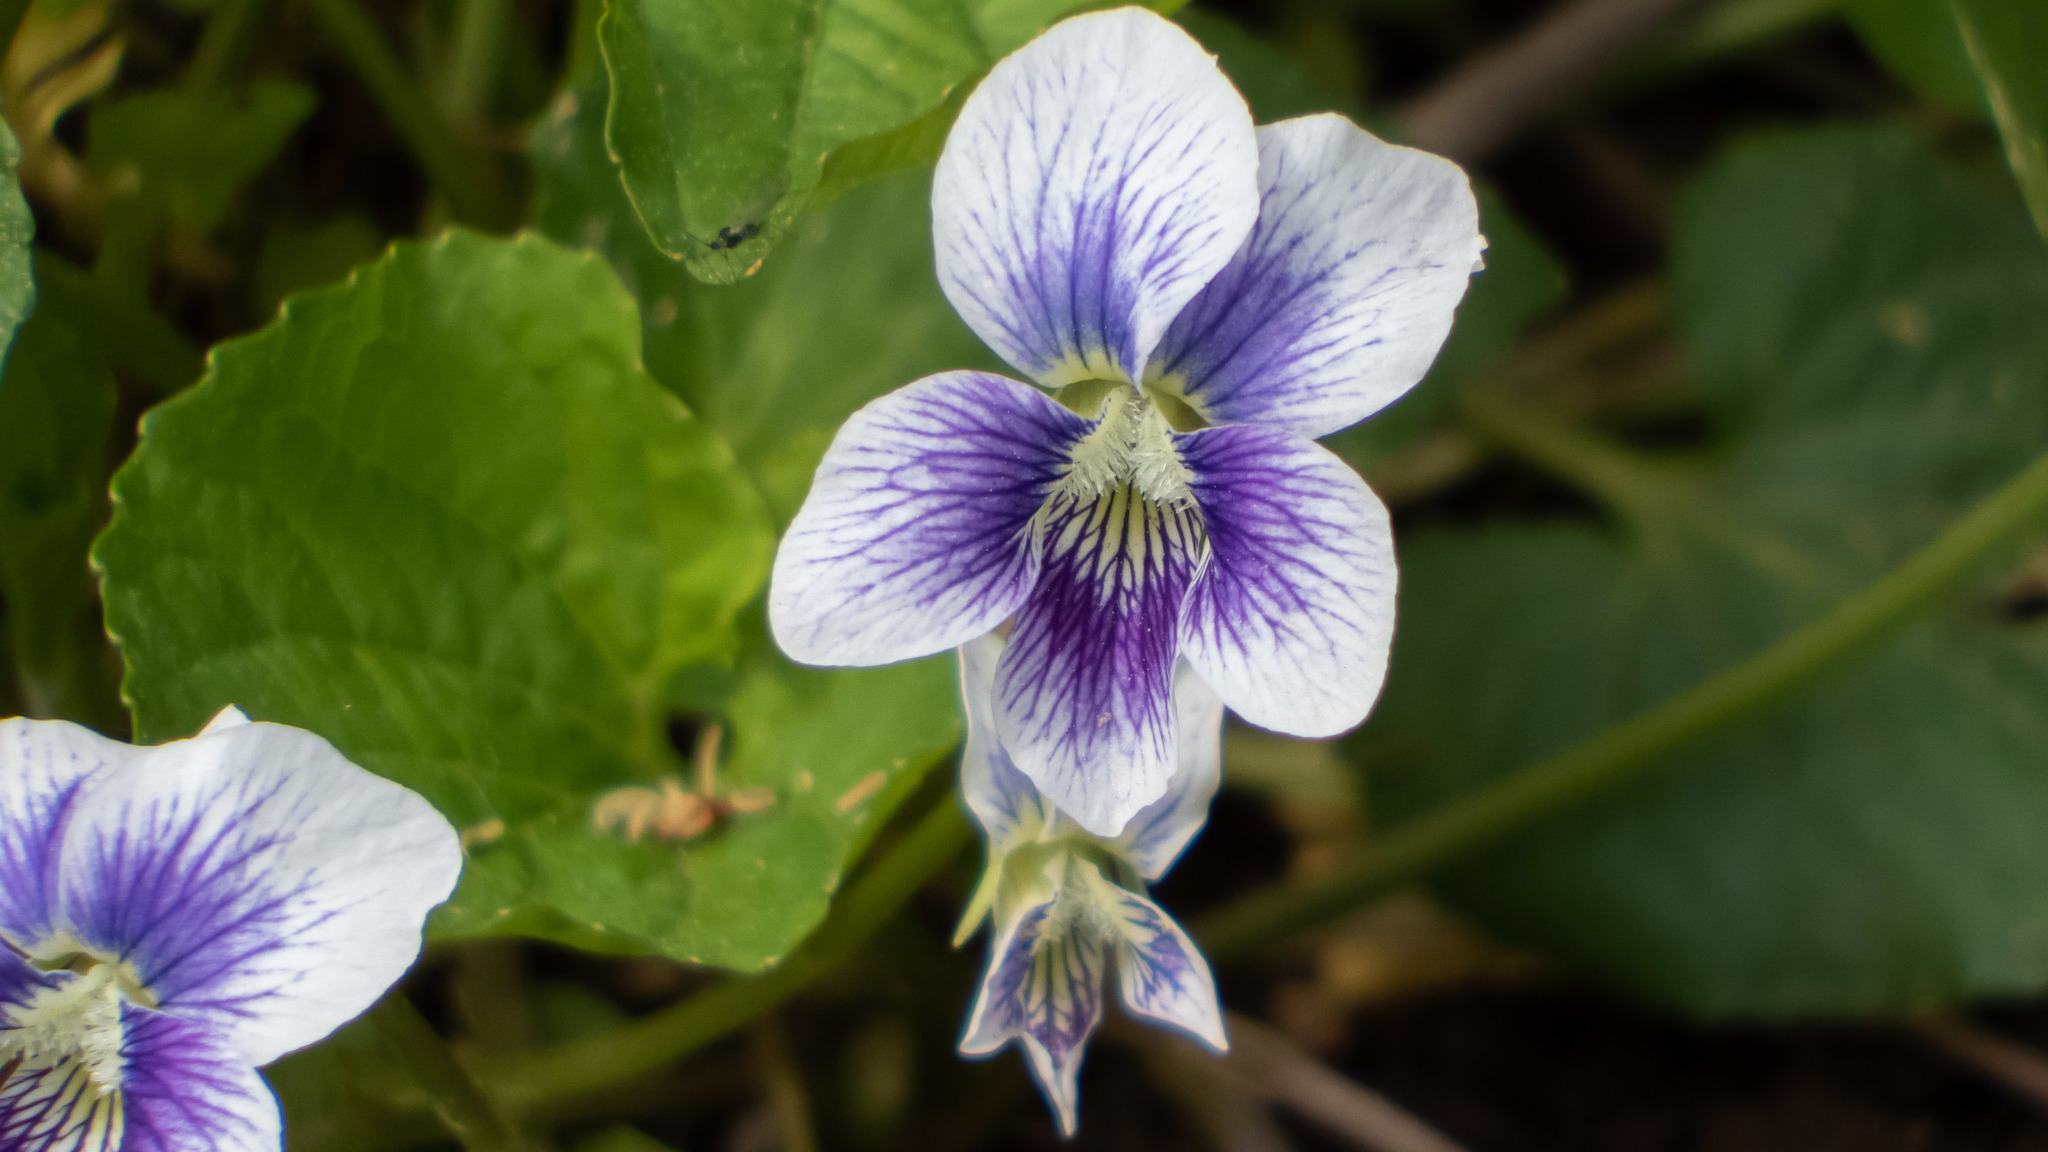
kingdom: Plantae
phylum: Tracheophyta
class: Magnoliopsida
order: Malpighiales
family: Violaceae
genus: Viola
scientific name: Viola sororia
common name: Dooryard violet
